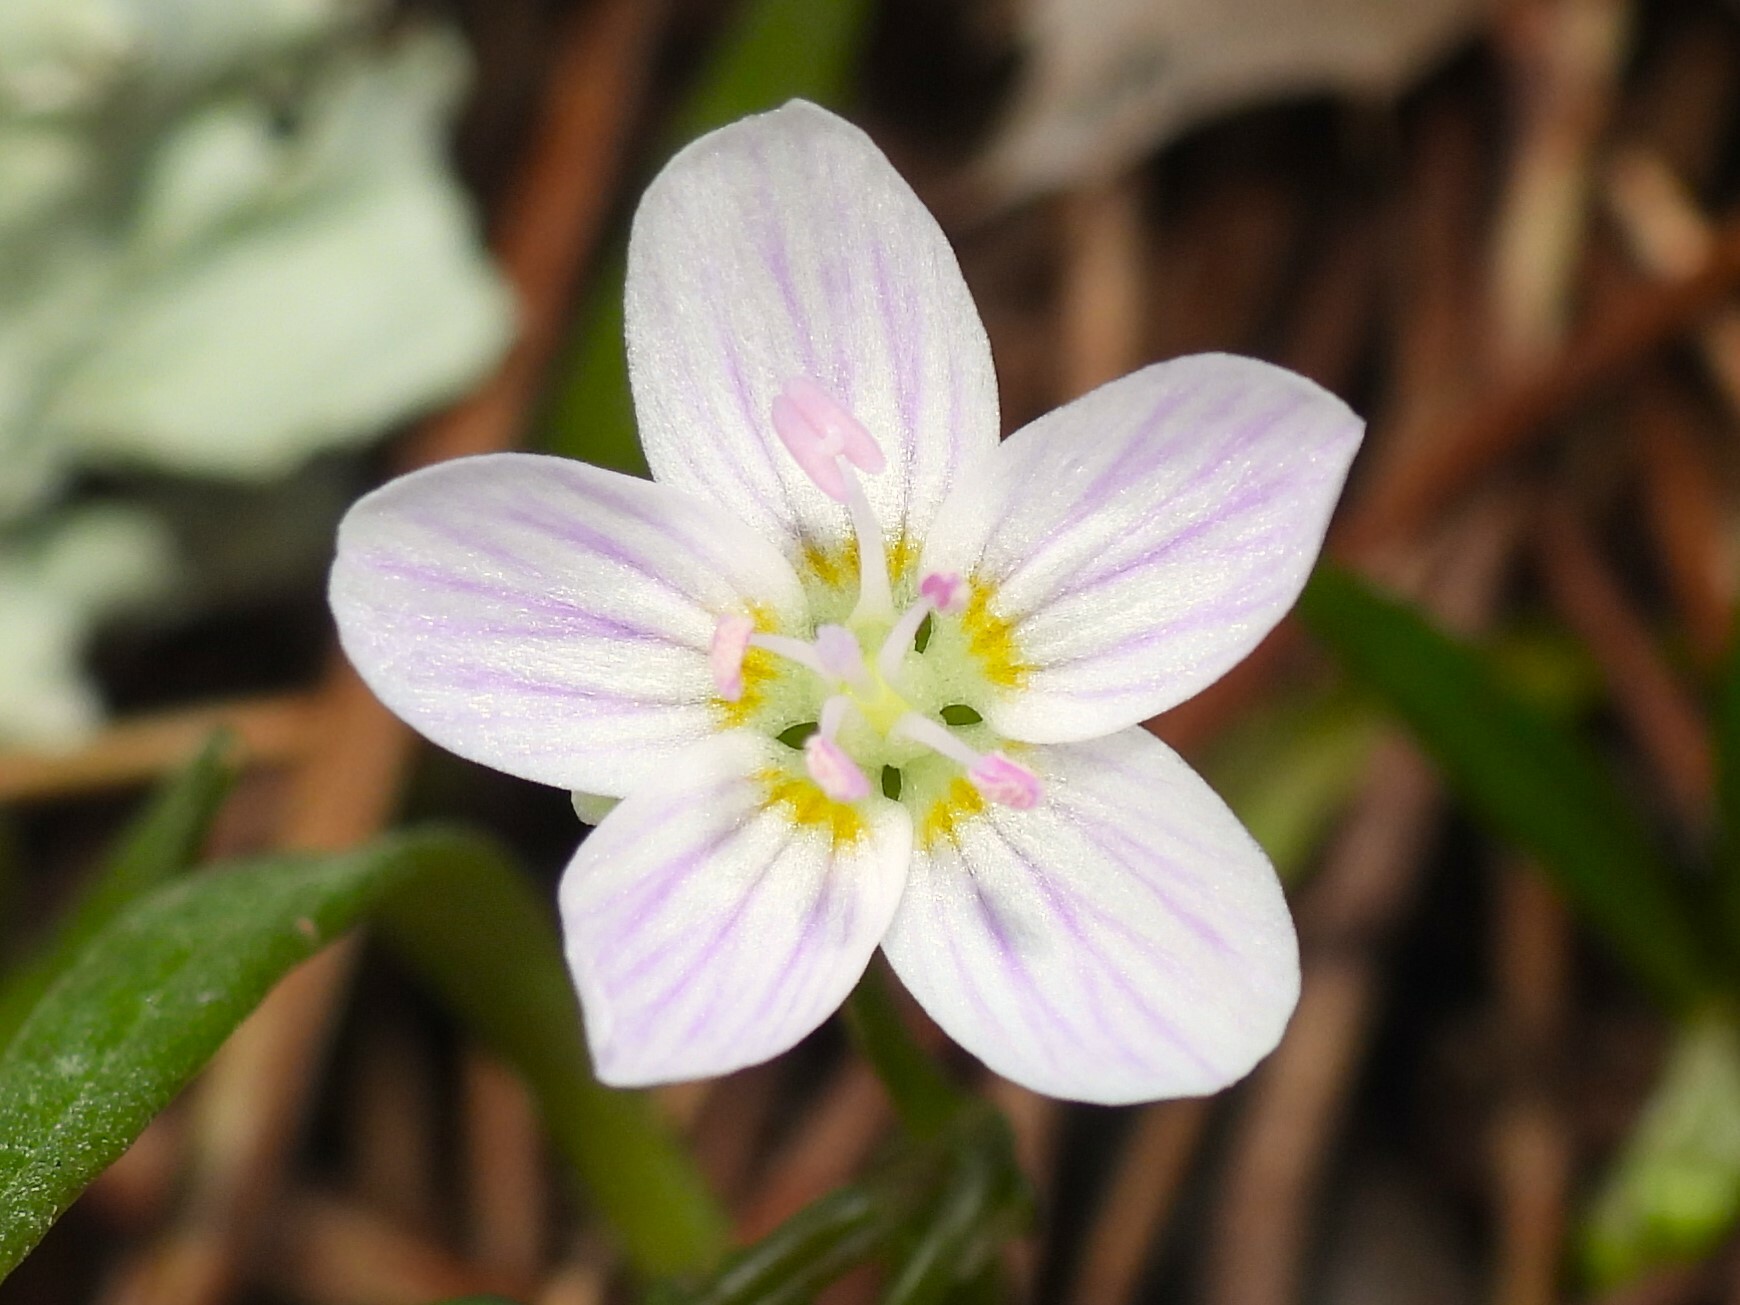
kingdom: Plantae
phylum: Tracheophyta
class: Magnoliopsida
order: Caryophyllales
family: Montiaceae
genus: Claytonia
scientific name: Claytonia virginica
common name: Virginia springbeauty
